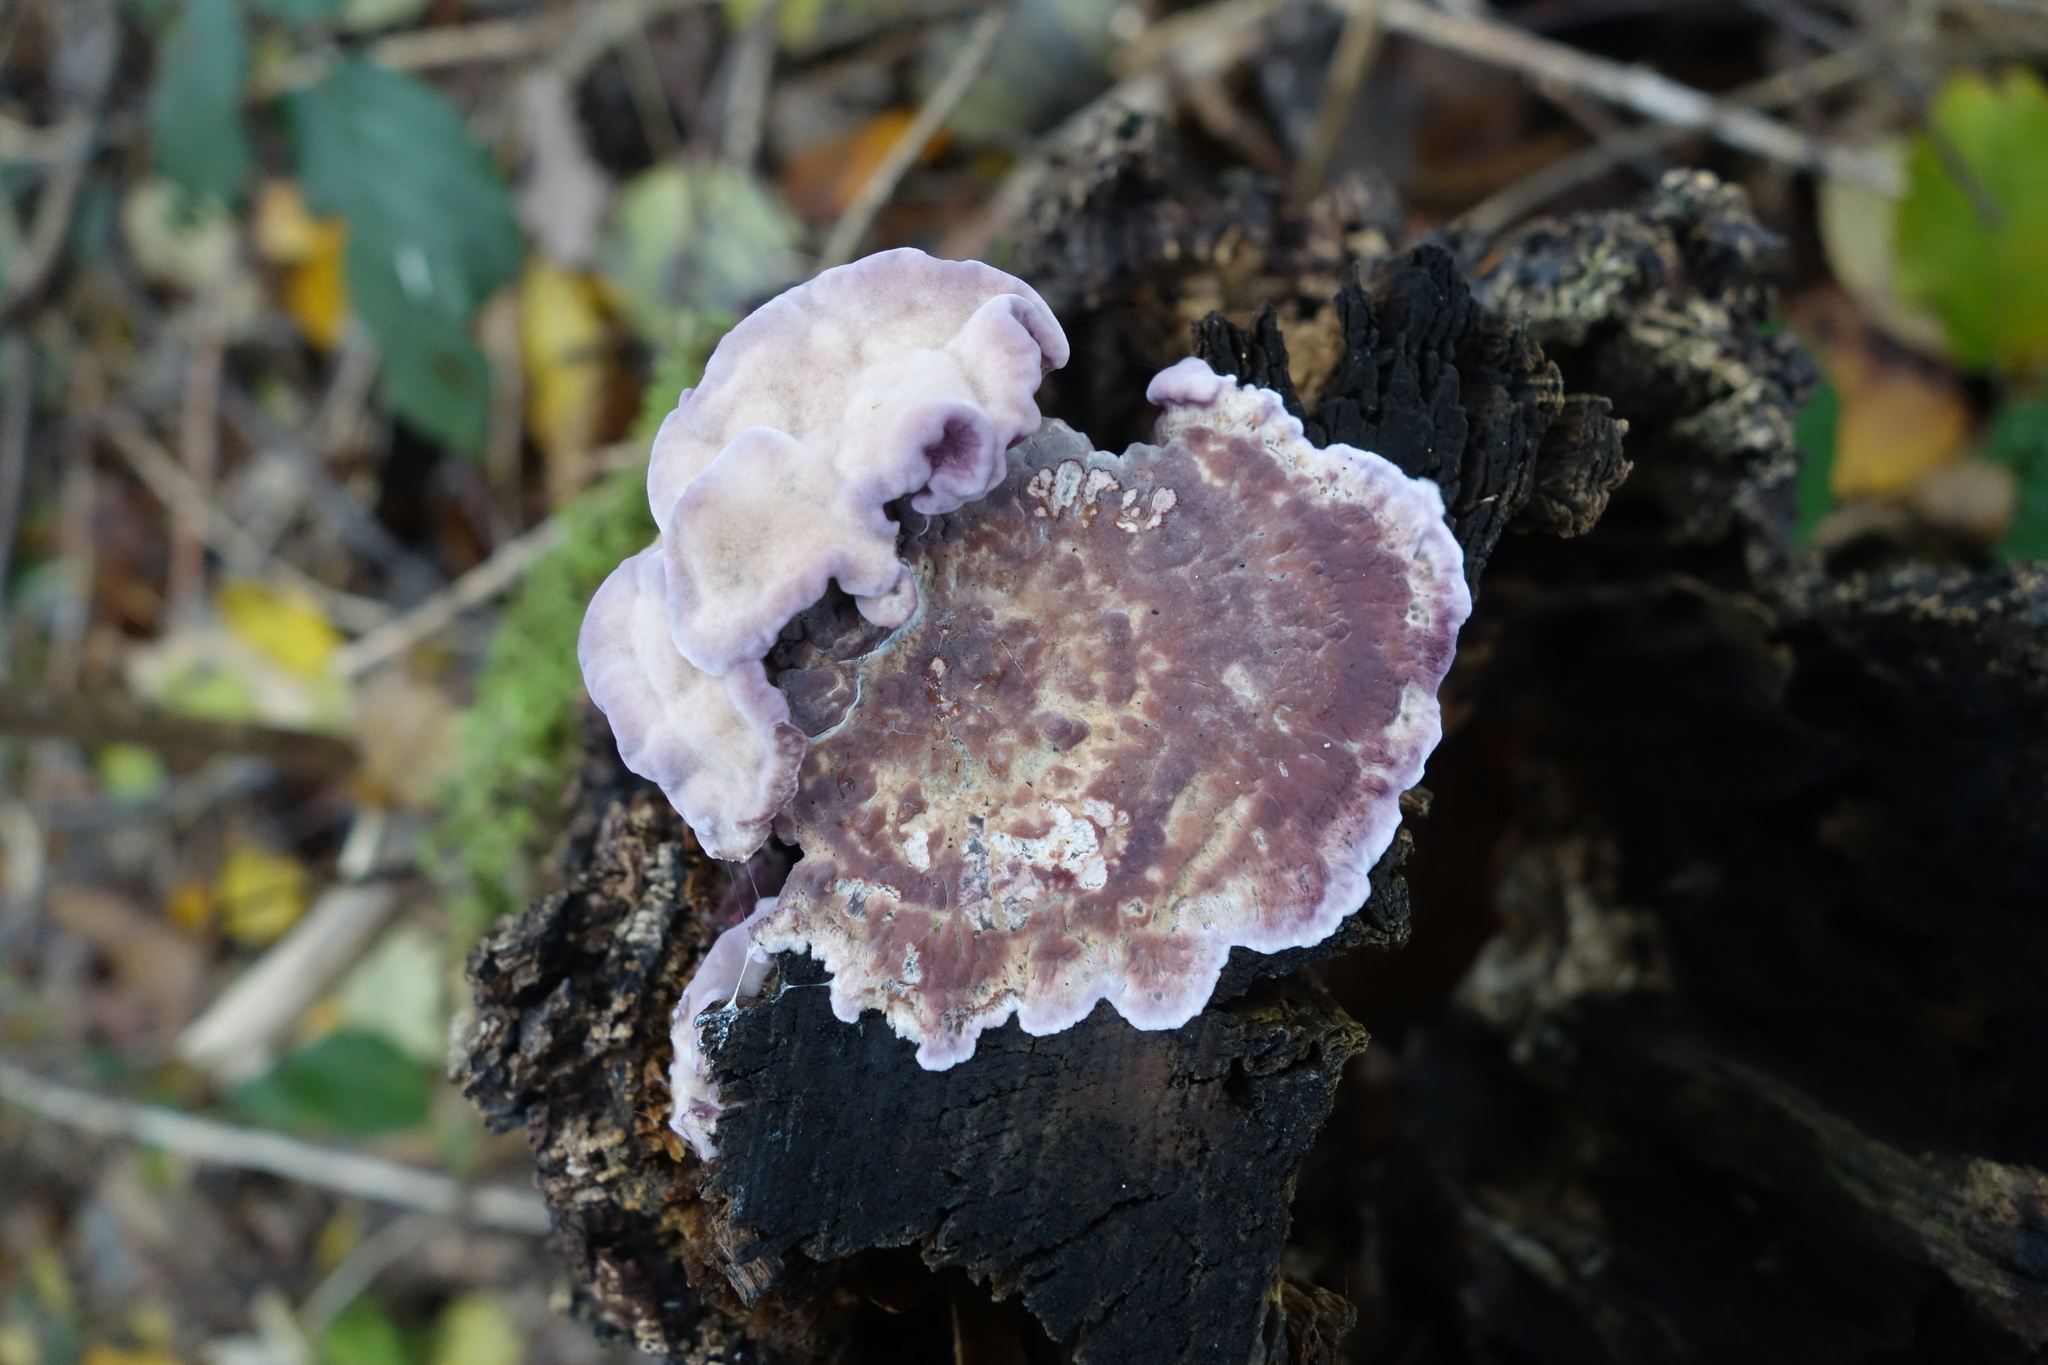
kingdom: Fungi
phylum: Basidiomycota
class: Agaricomycetes
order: Agaricales
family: Cyphellaceae
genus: Chondrostereum
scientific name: Chondrostereum purpureum
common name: Silver leaf disease
